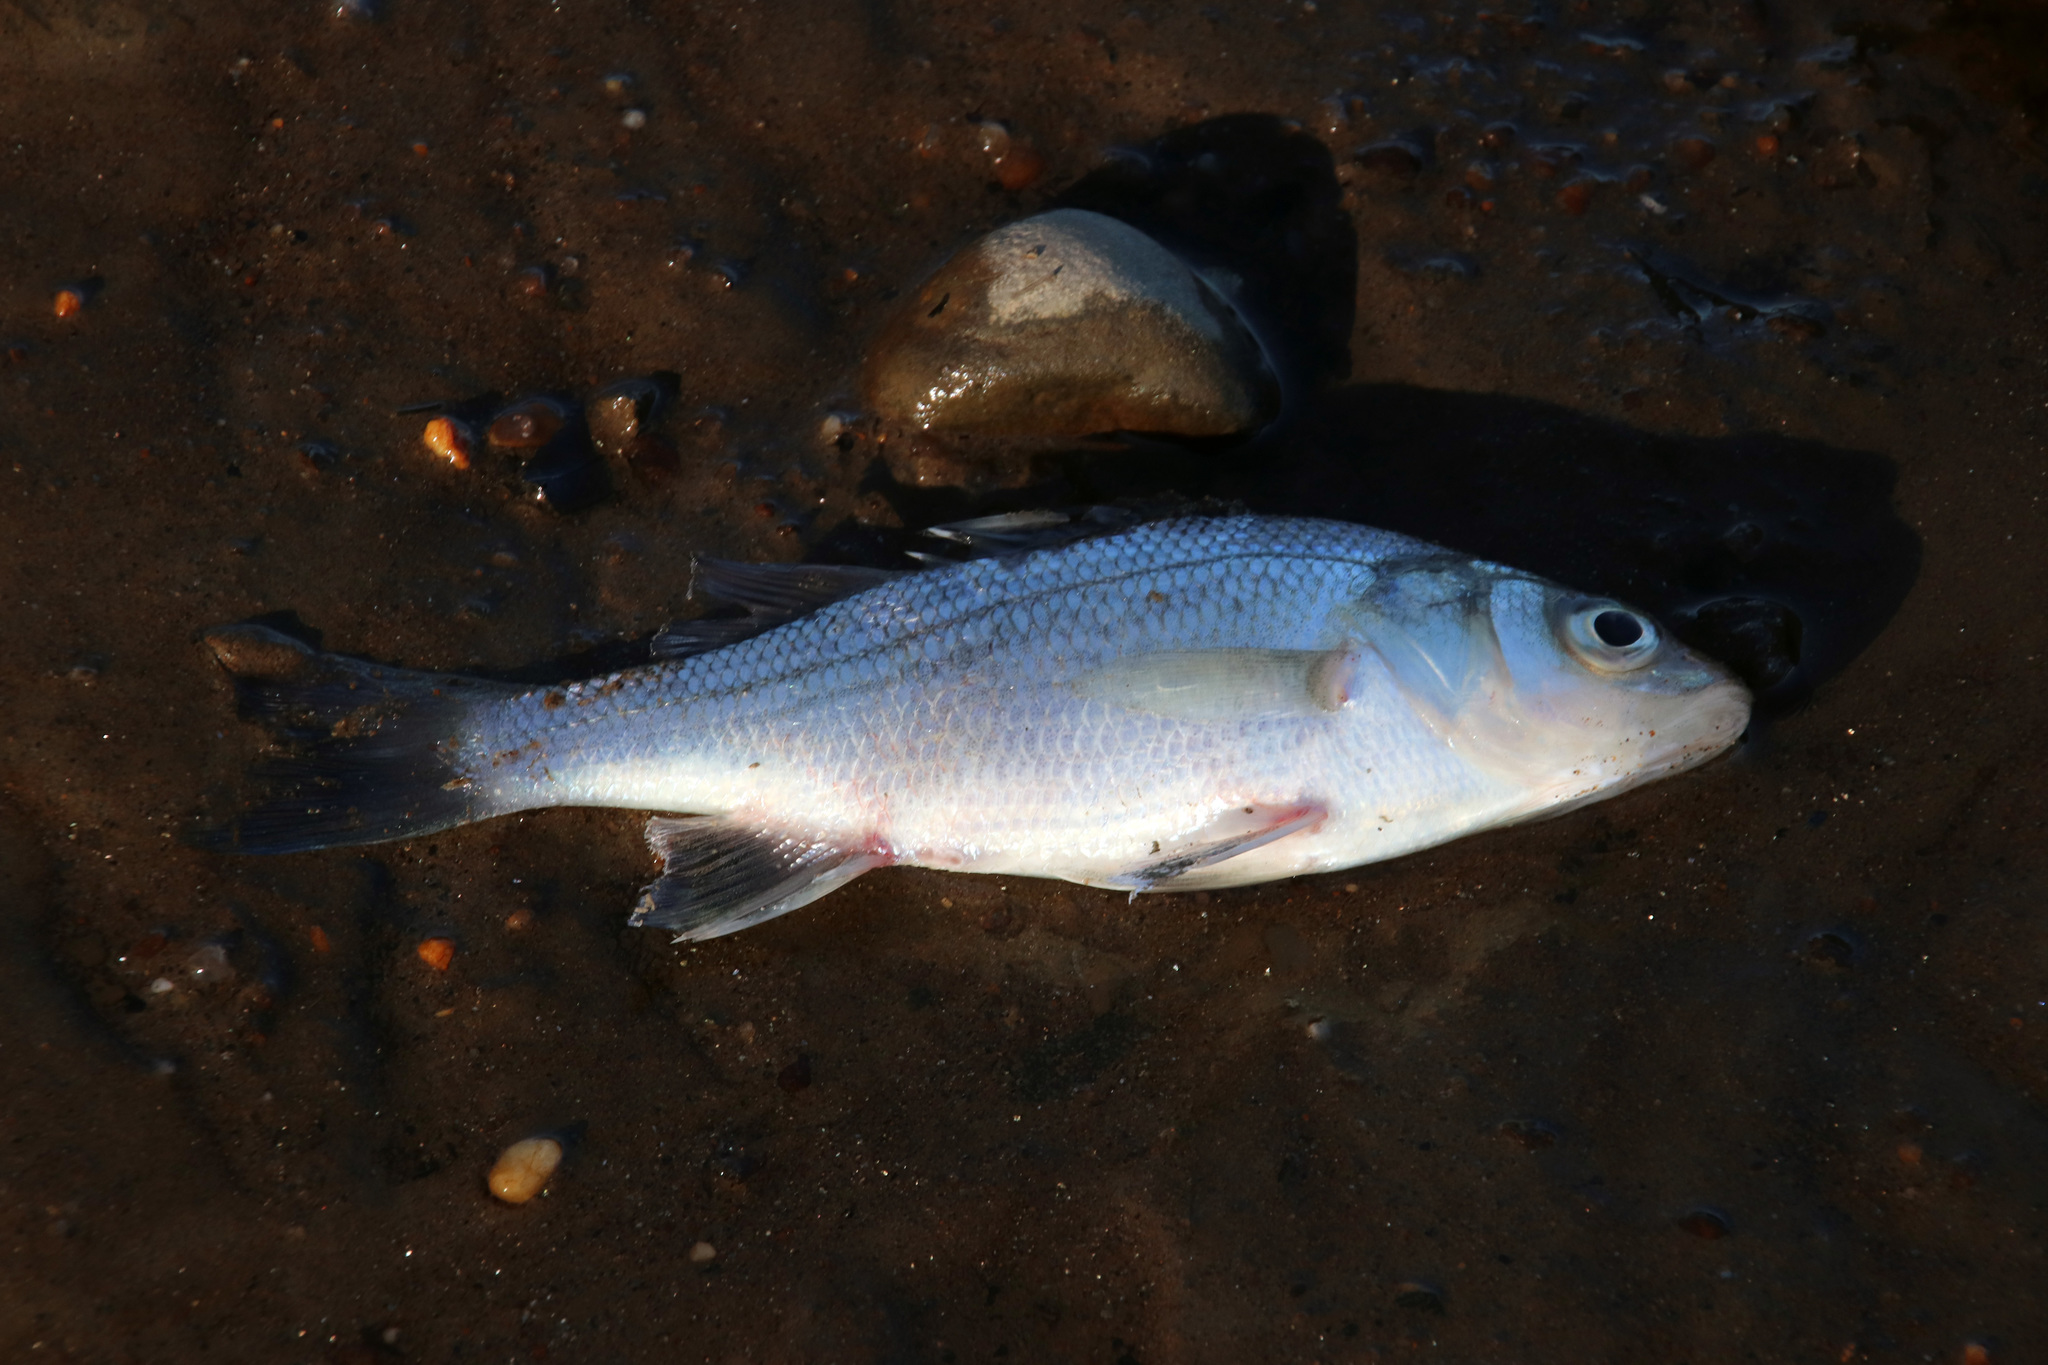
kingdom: Animalia
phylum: Chordata
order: Perciformes
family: Moronidae
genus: Morone
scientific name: Morone americana
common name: White perch
